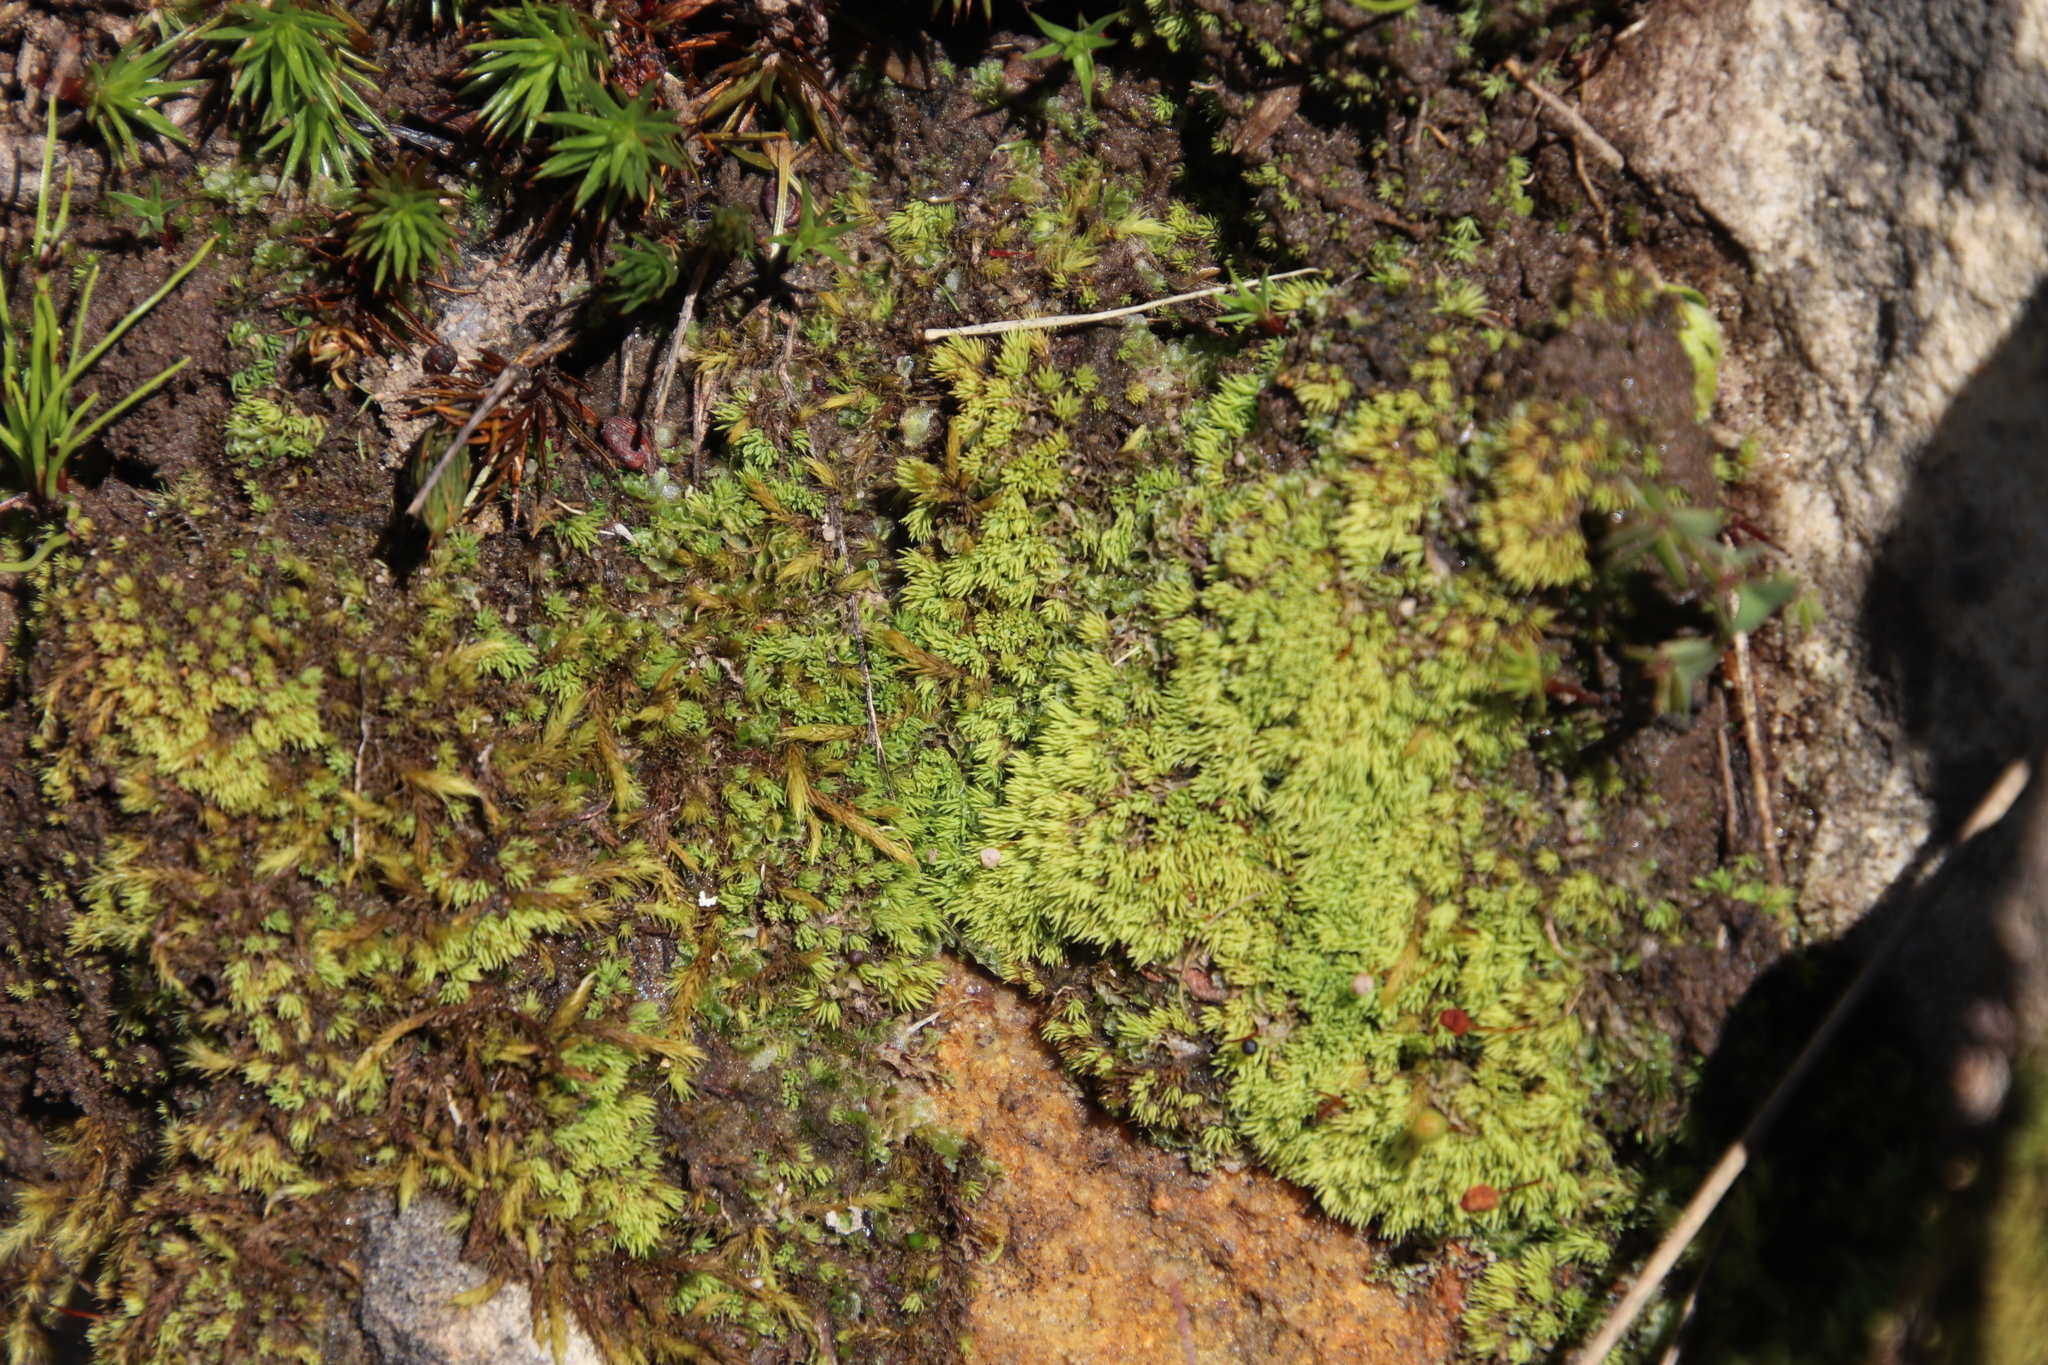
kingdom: Plantae
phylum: Bryophyta
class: Bryopsida
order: Bartramiales
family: Bartramiaceae
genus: Bartramia
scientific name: Bartramia hampeana
